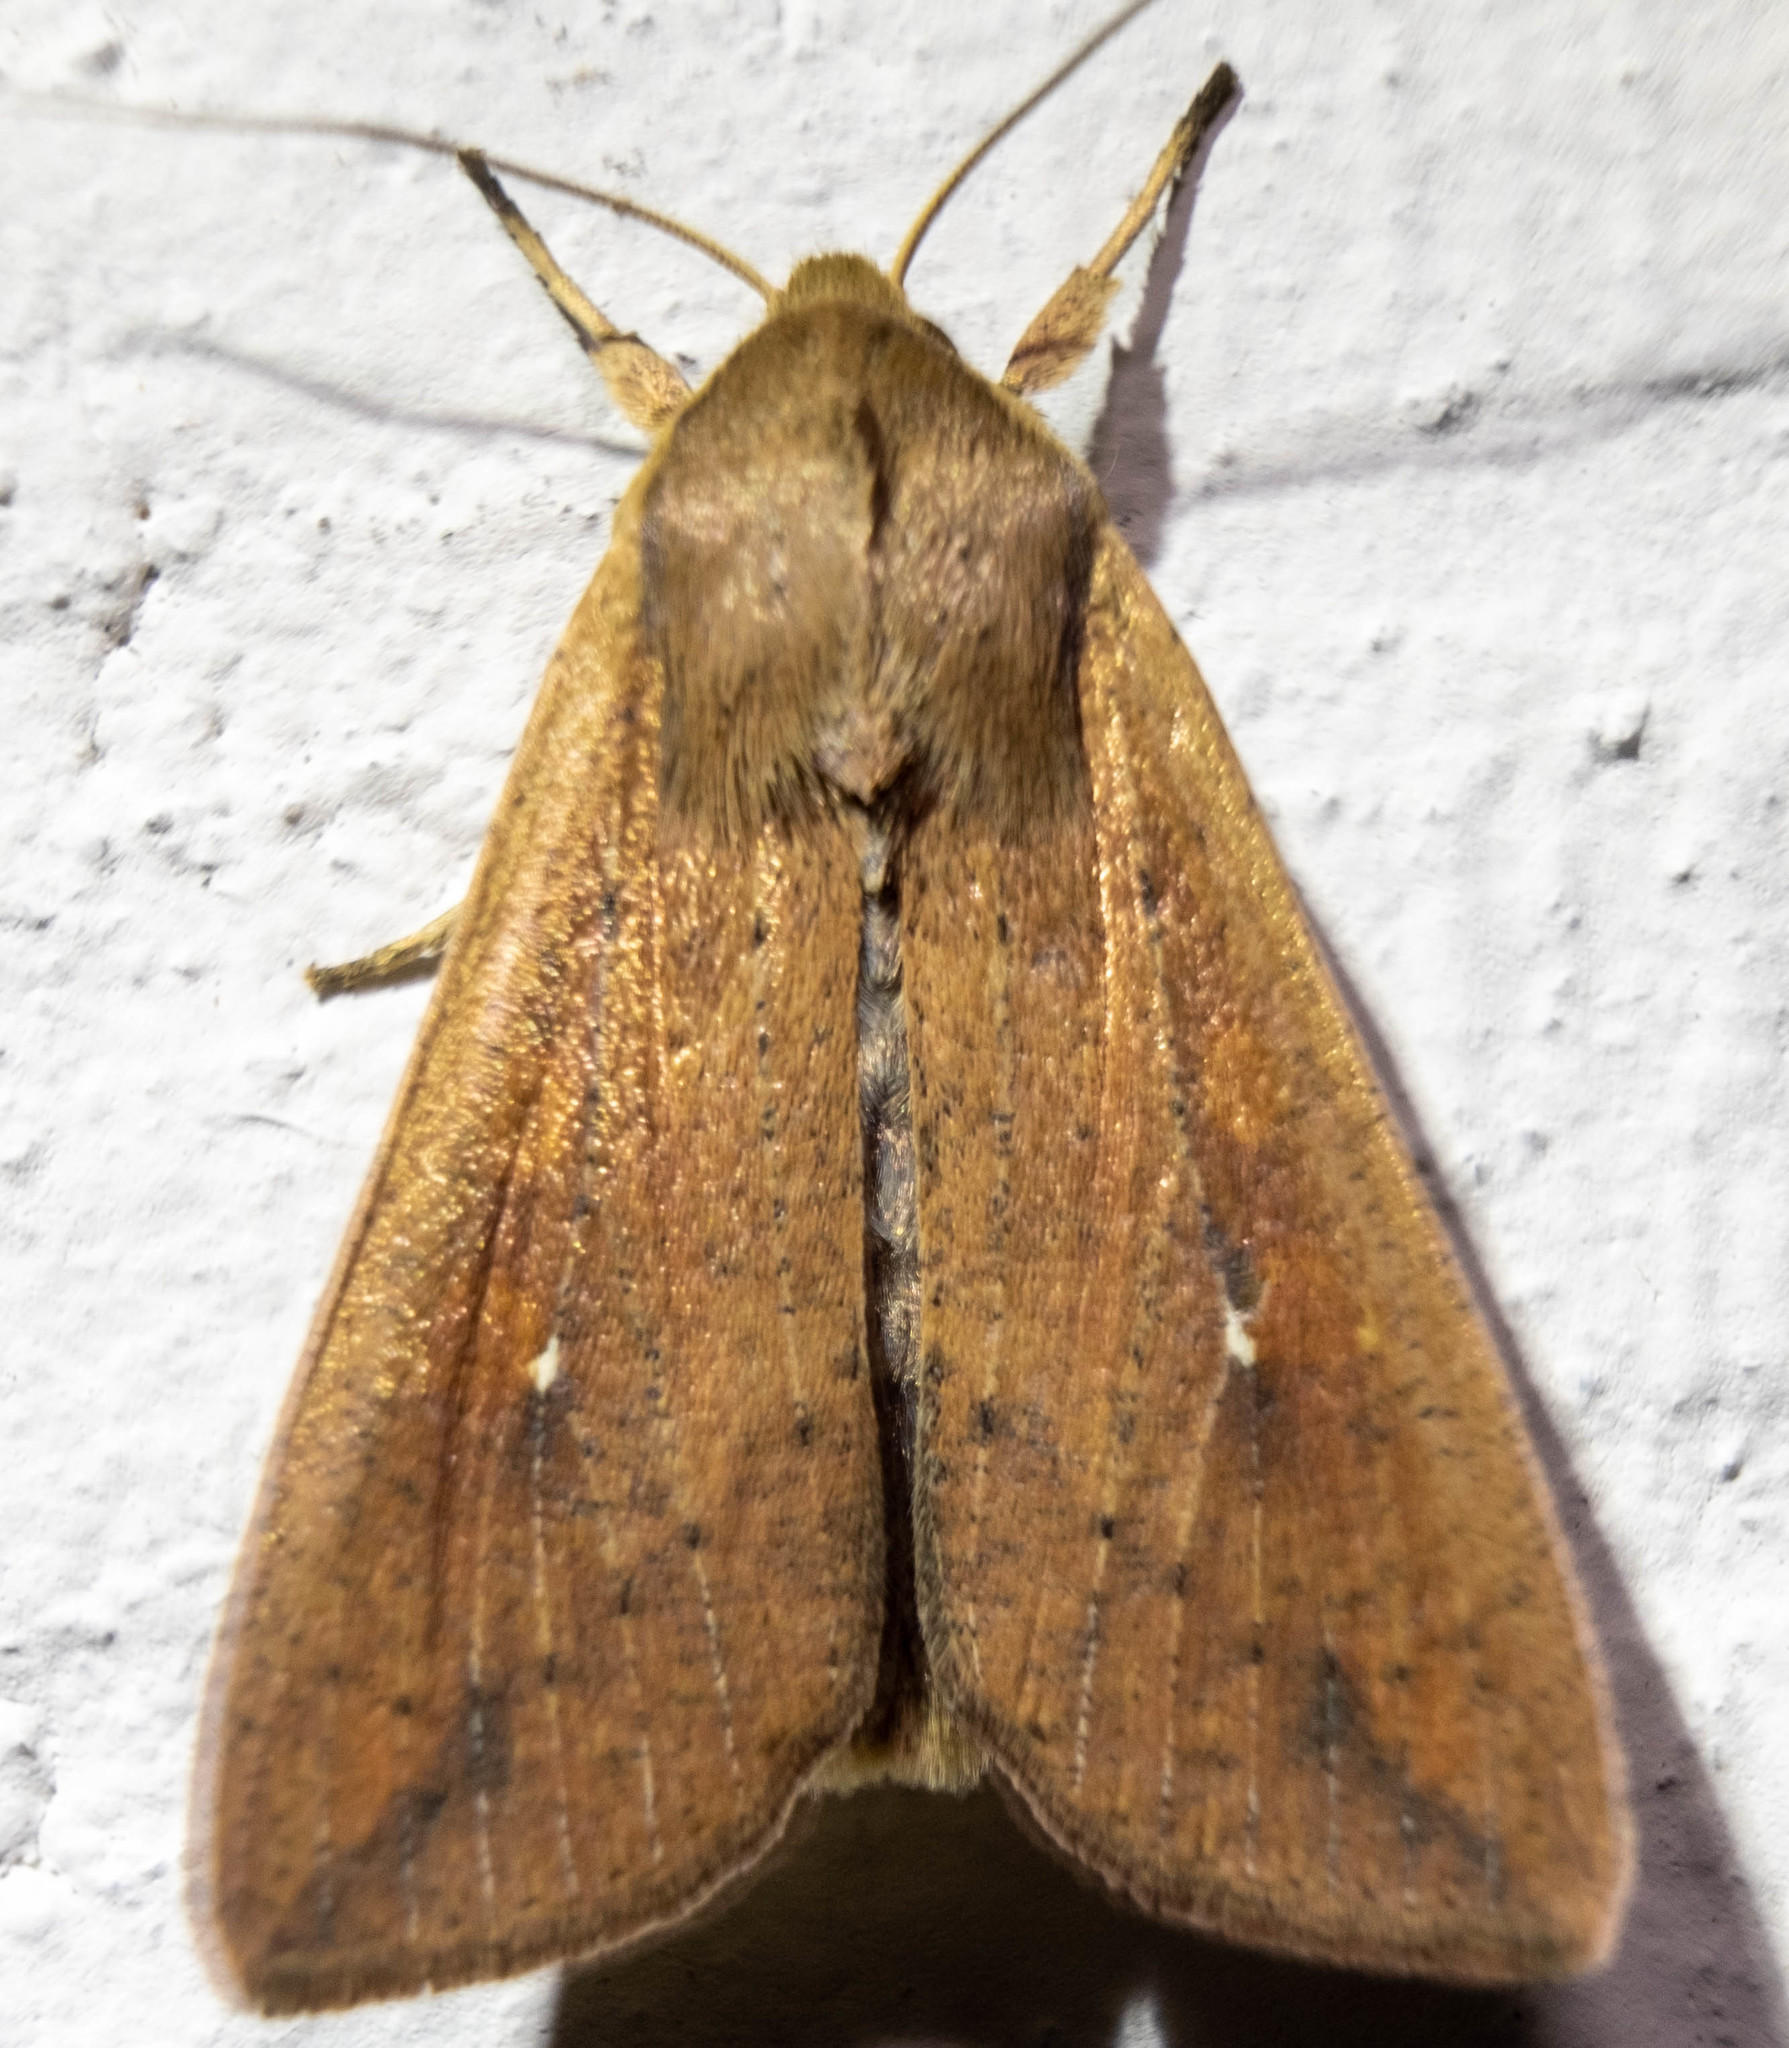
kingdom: Animalia
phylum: Arthropoda
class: Insecta
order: Lepidoptera
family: Noctuidae
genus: Mythimna
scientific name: Mythimna unipuncta
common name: White-speck
